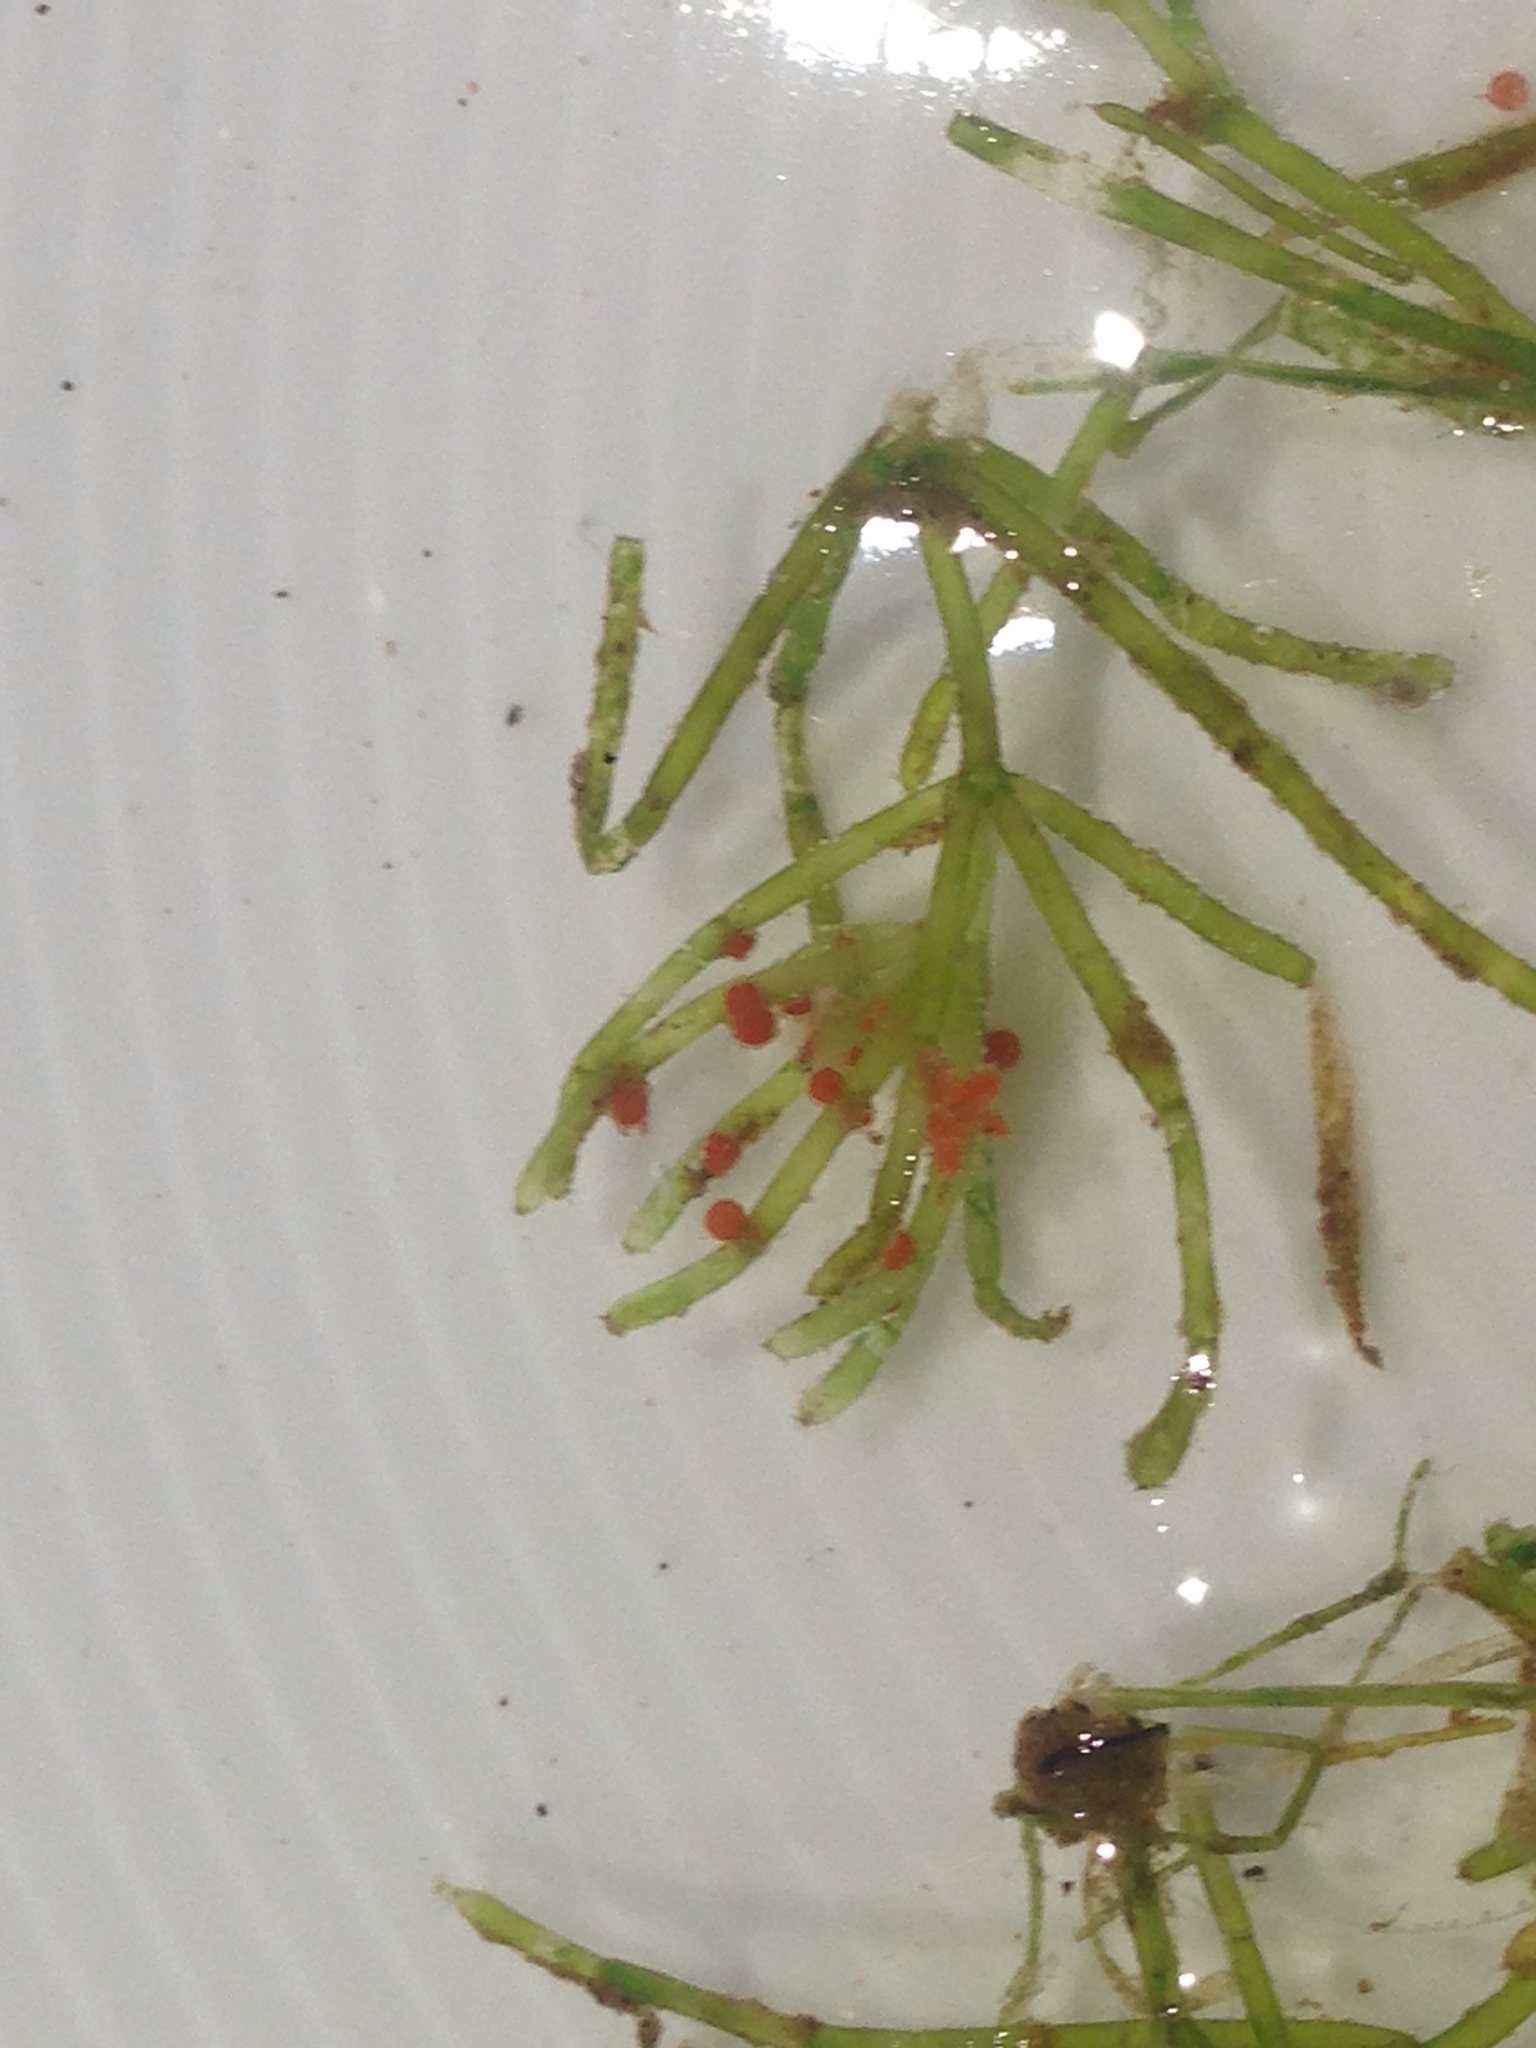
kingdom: Plantae
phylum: Charophyta
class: Charophyceae
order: Charales
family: Characeae
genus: Chara
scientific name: Chara australis
